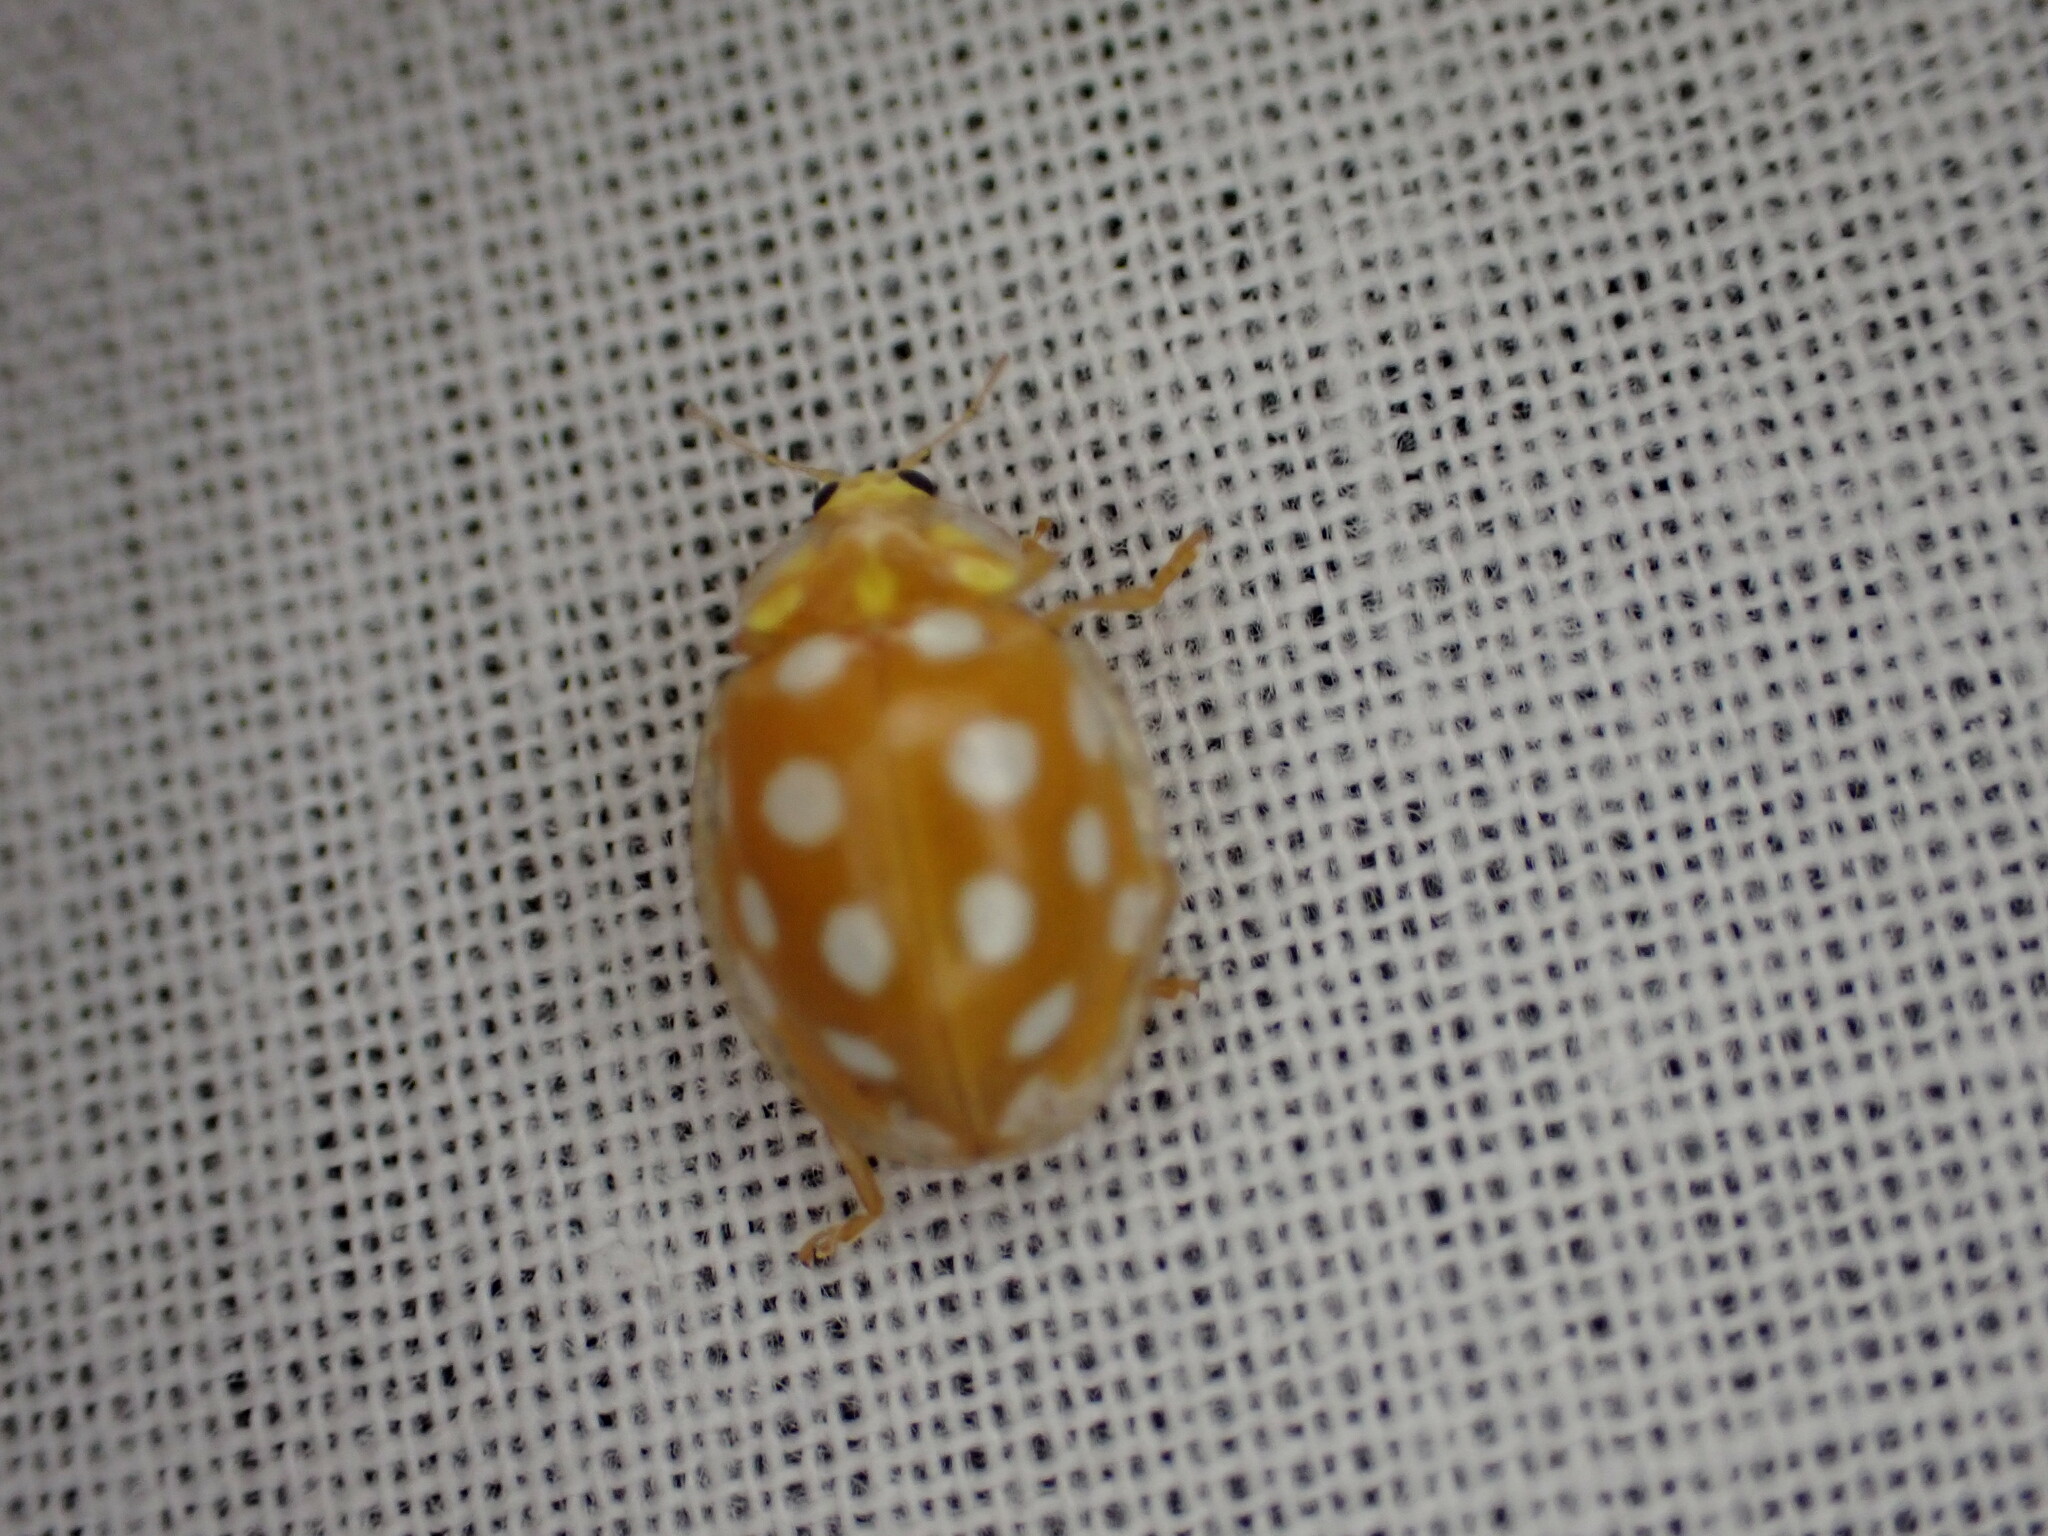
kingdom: Animalia
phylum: Arthropoda
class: Insecta
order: Coleoptera
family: Coccinellidae
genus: Halyzia
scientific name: Halyzia sedecimguttata
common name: Orange ladybird
